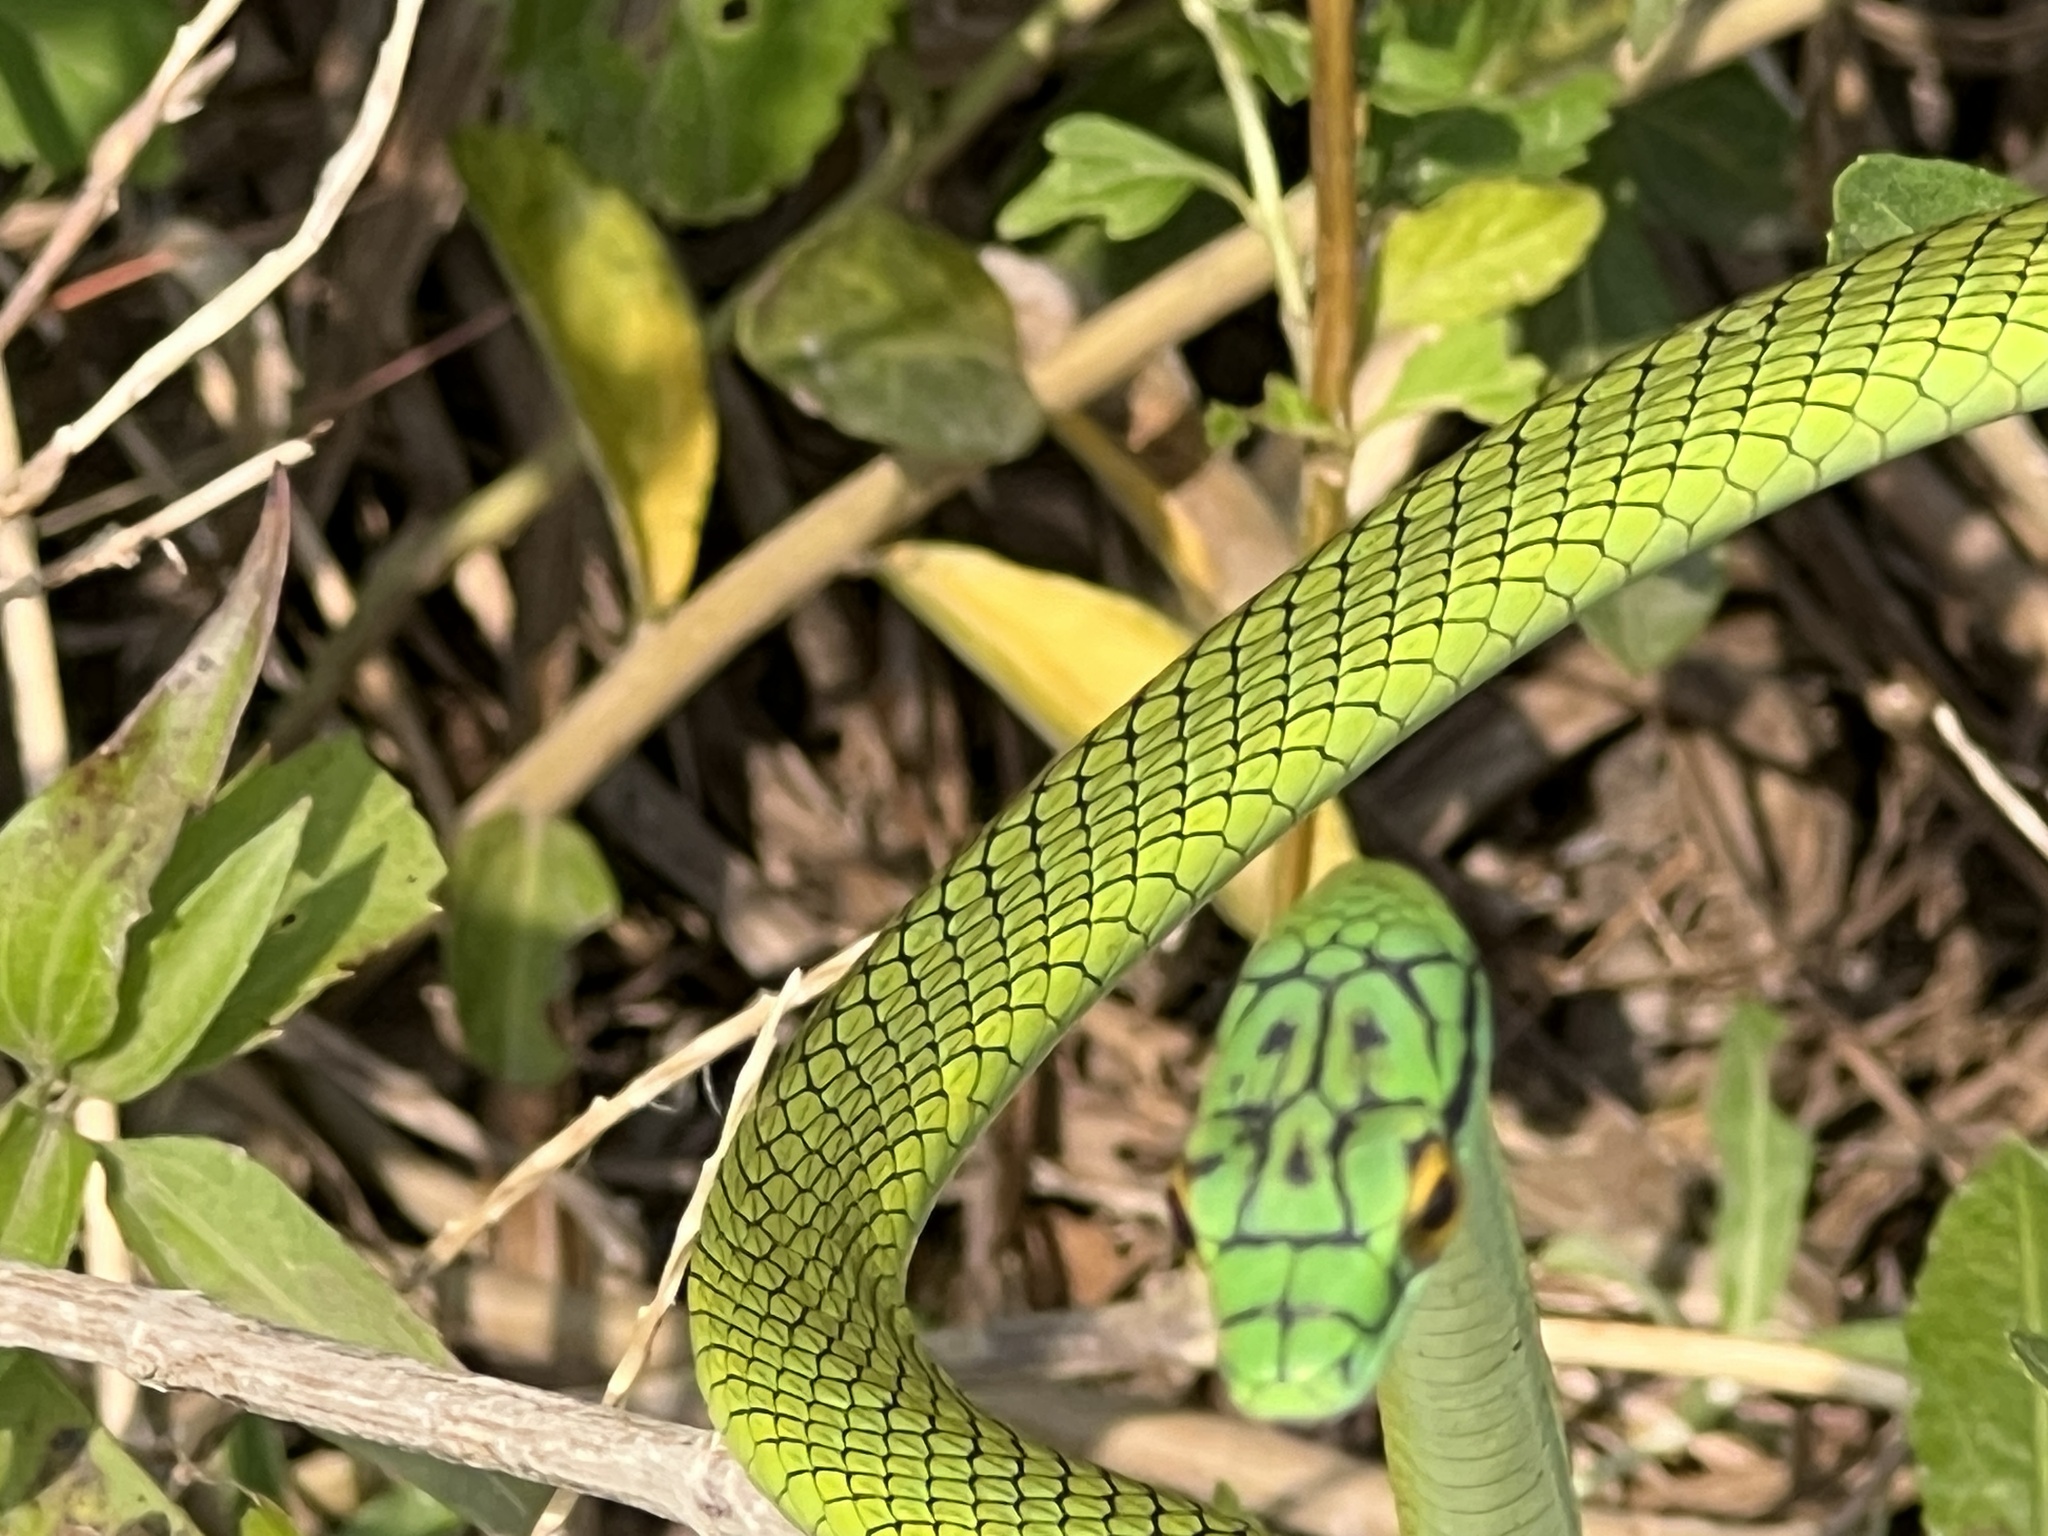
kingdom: Animalia
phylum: Chordata
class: Squamata
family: Colubridae
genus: Leptophis
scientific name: Leptophis ahaetulla
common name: Parrot snake
